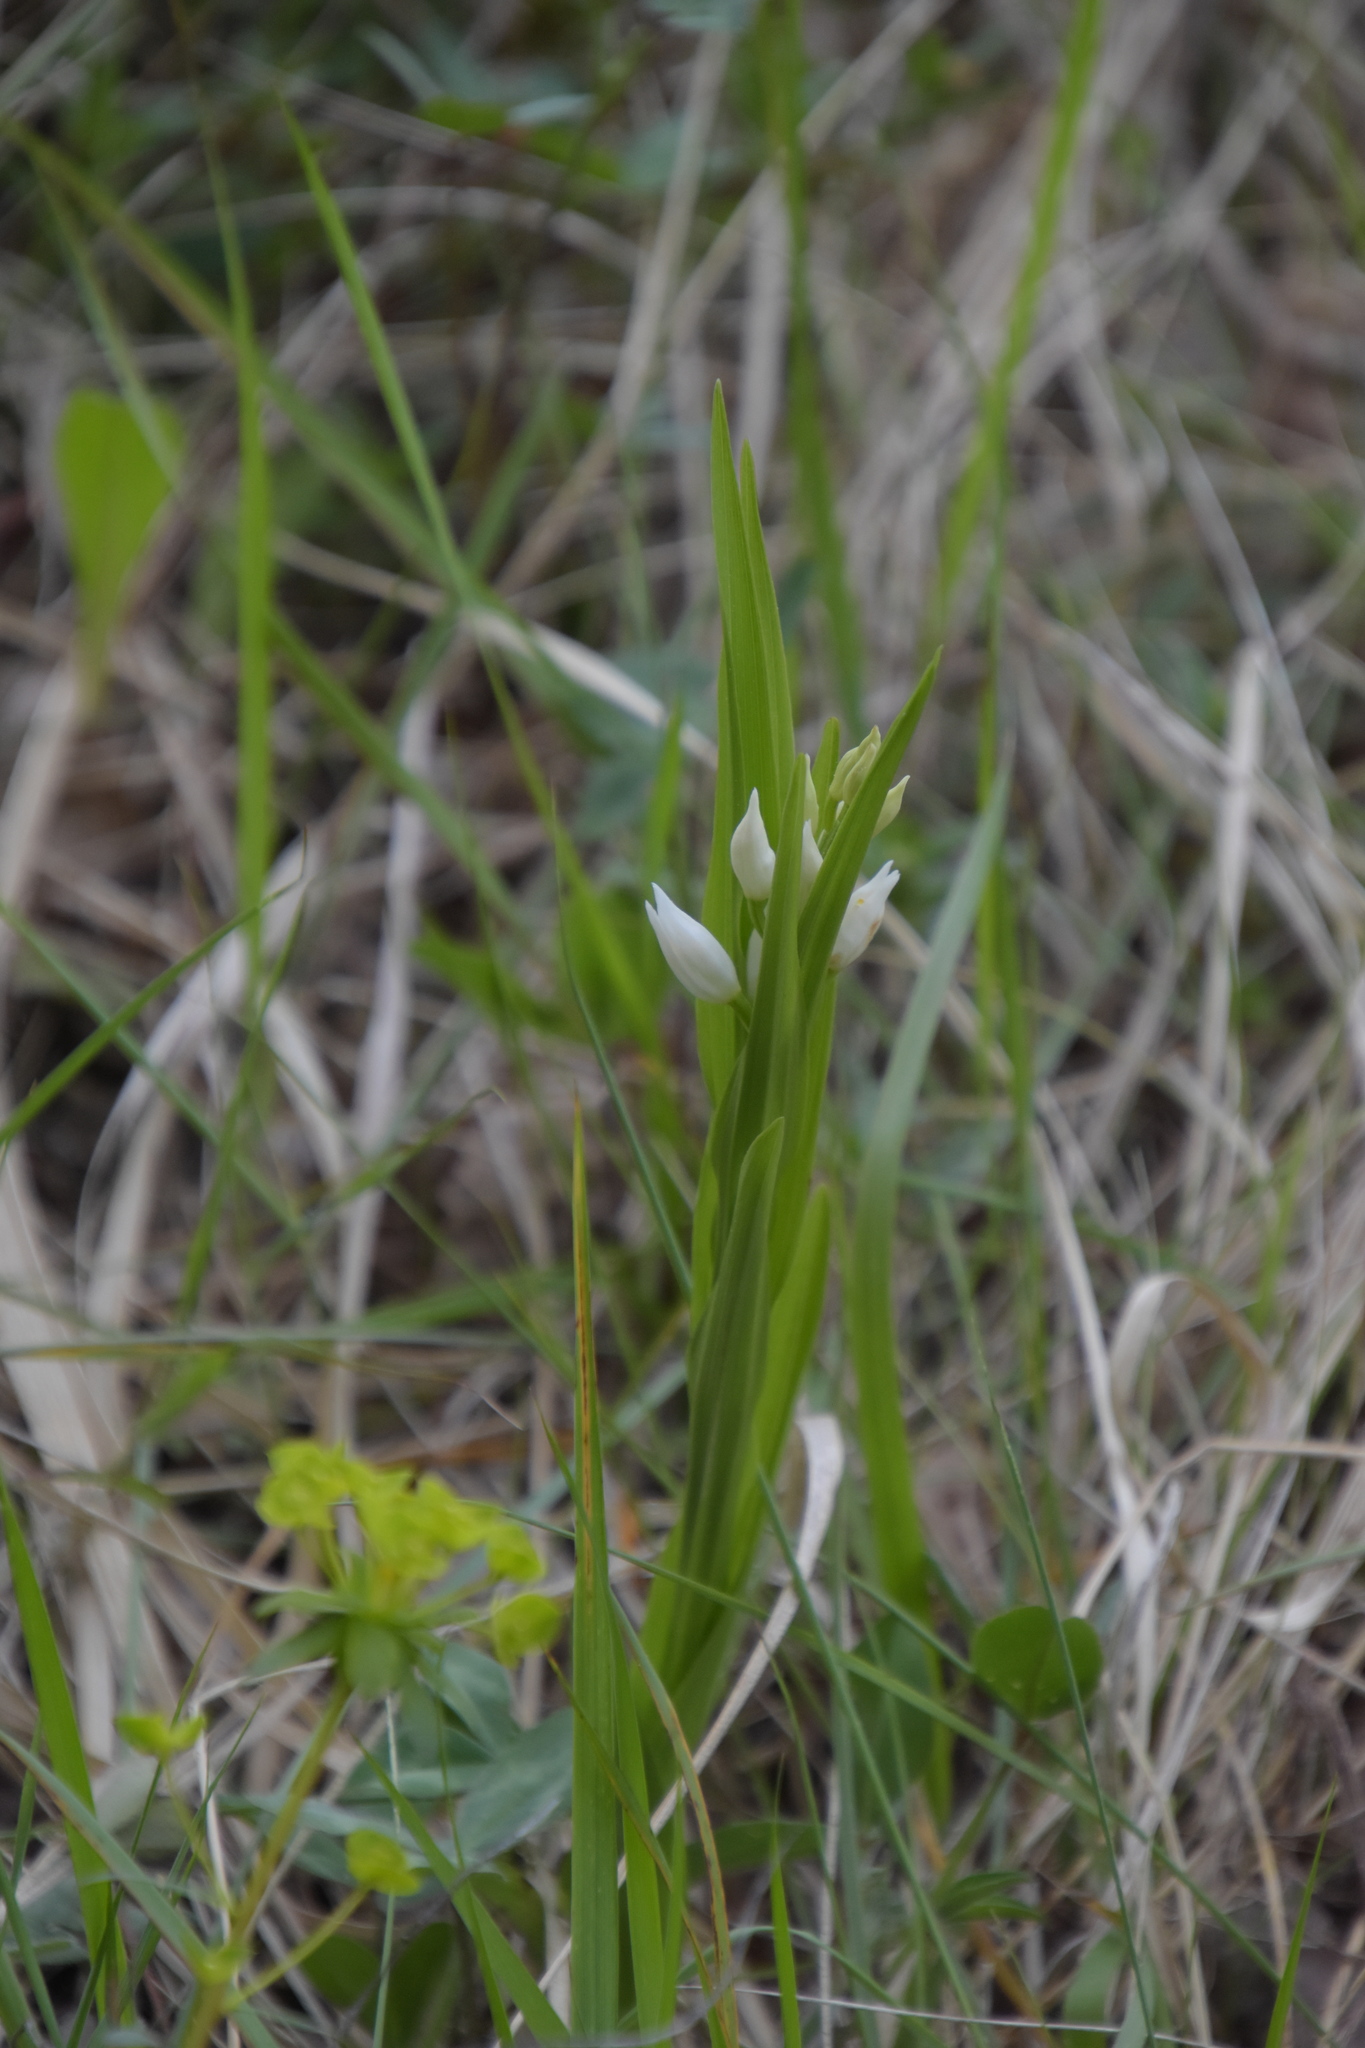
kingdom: Plantae
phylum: Tracheophyta
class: Liliopsida
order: Asparagales
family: Orchidaceae
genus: Cephalanthera
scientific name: Cephalanthera longifolia
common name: Narrow-leaved helleborine
